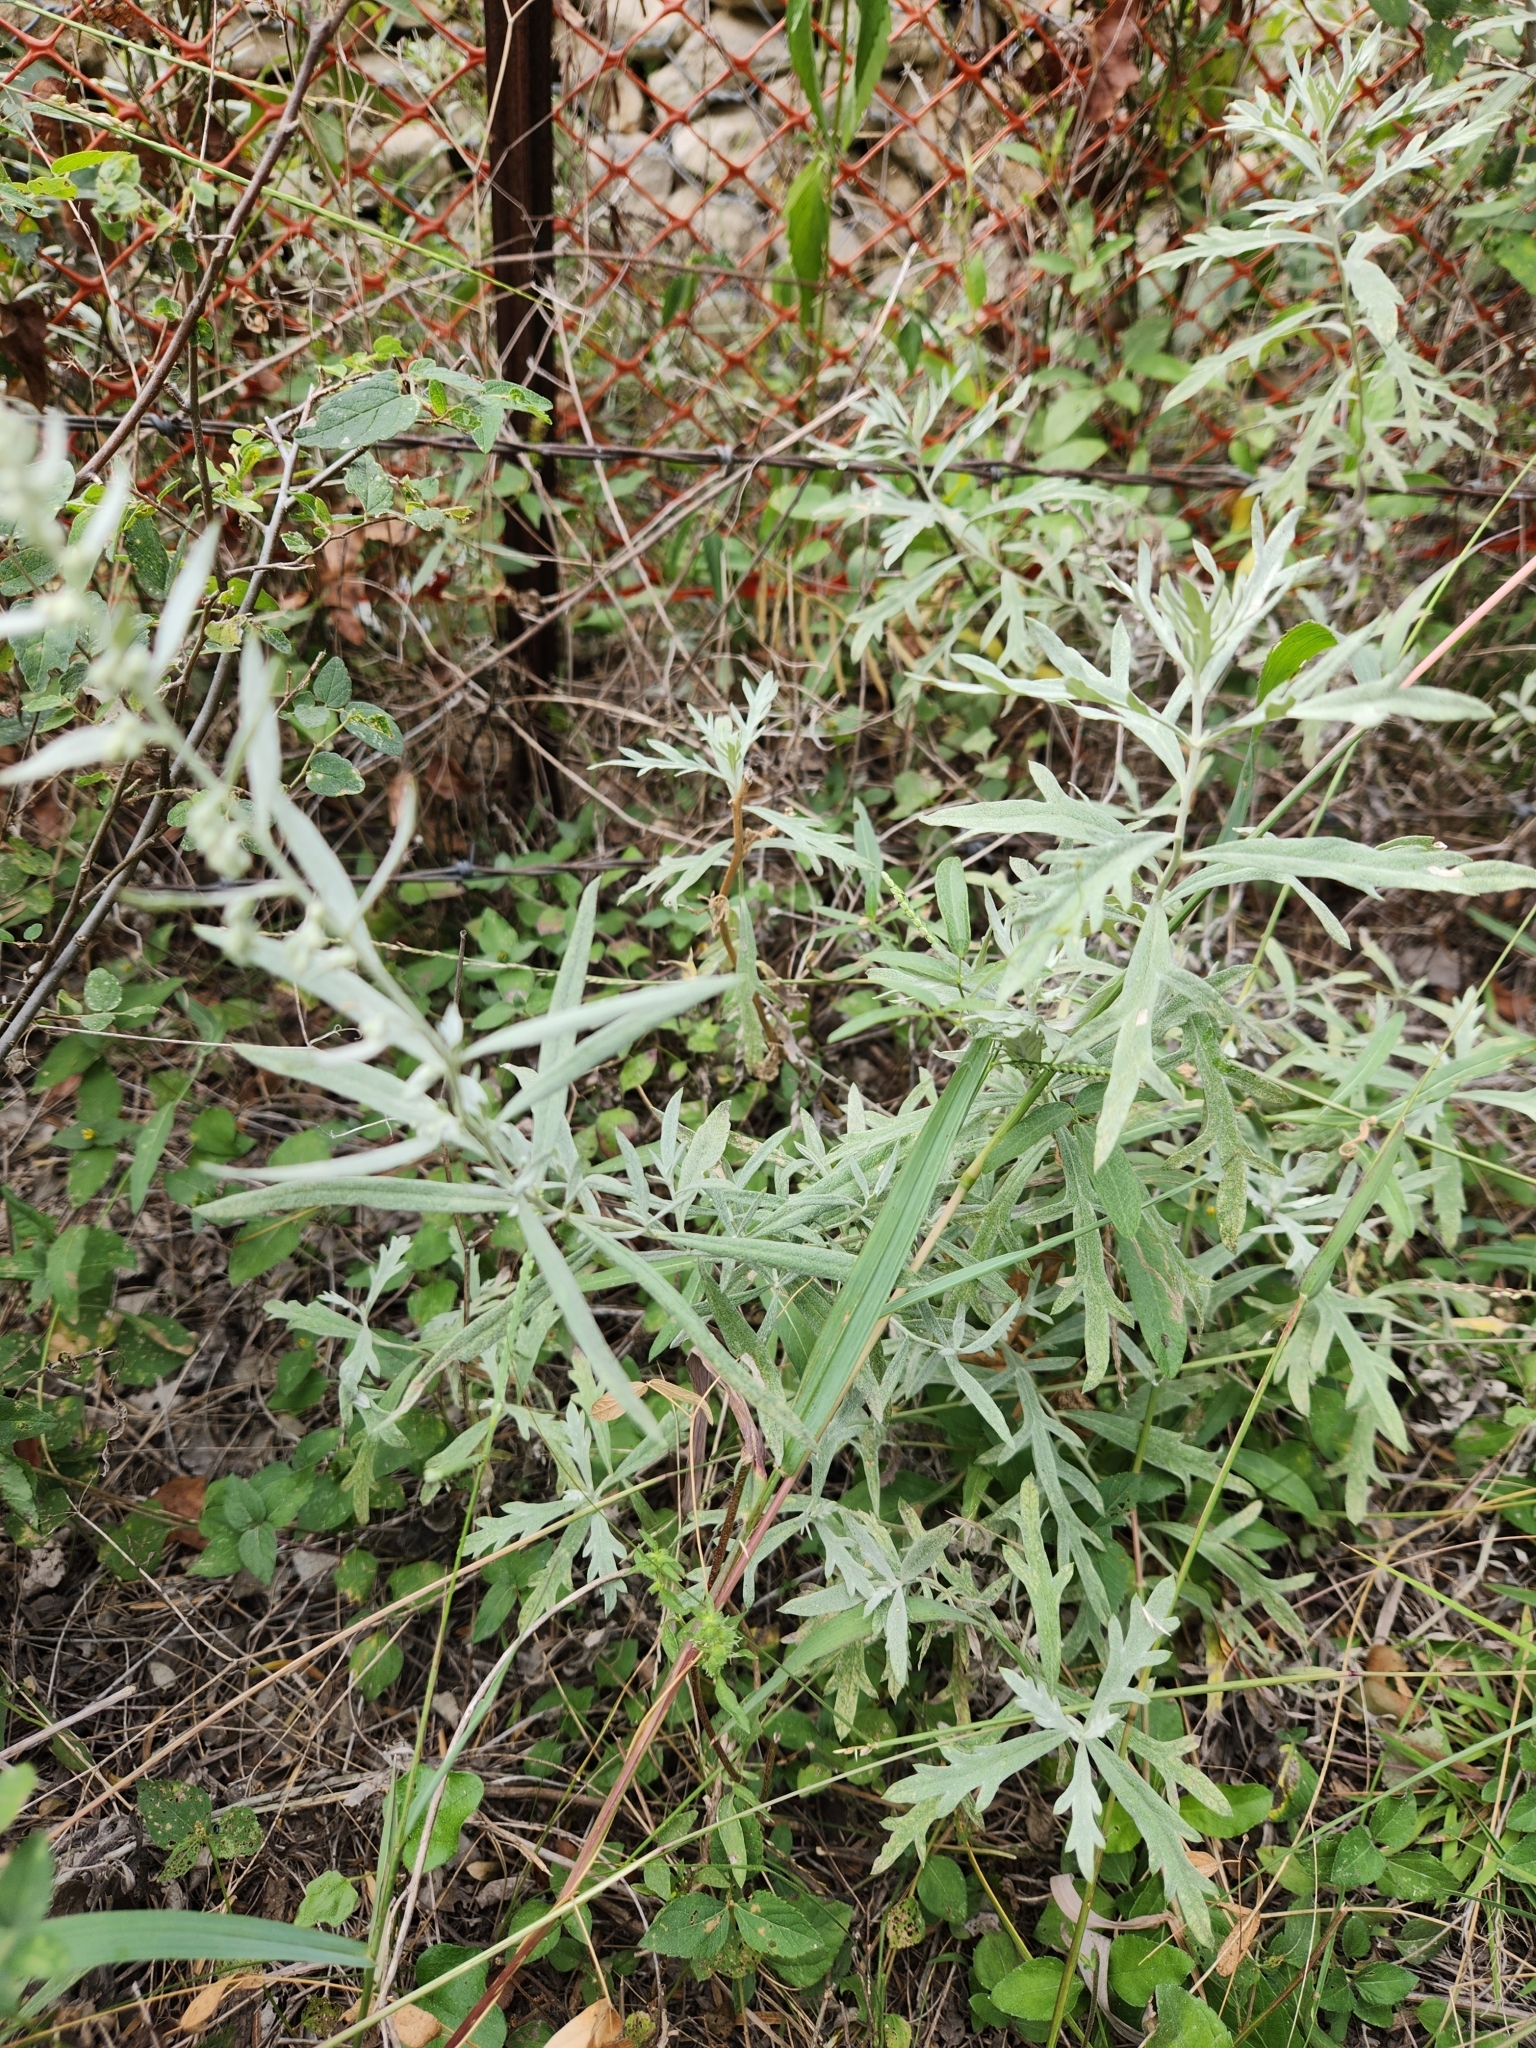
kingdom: Plantae
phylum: Tracheophyta
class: Magnoliopsida
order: Asterales
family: Asteraceae
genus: Artemisia
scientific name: Artemisia ludoviciana
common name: Western mugwort
